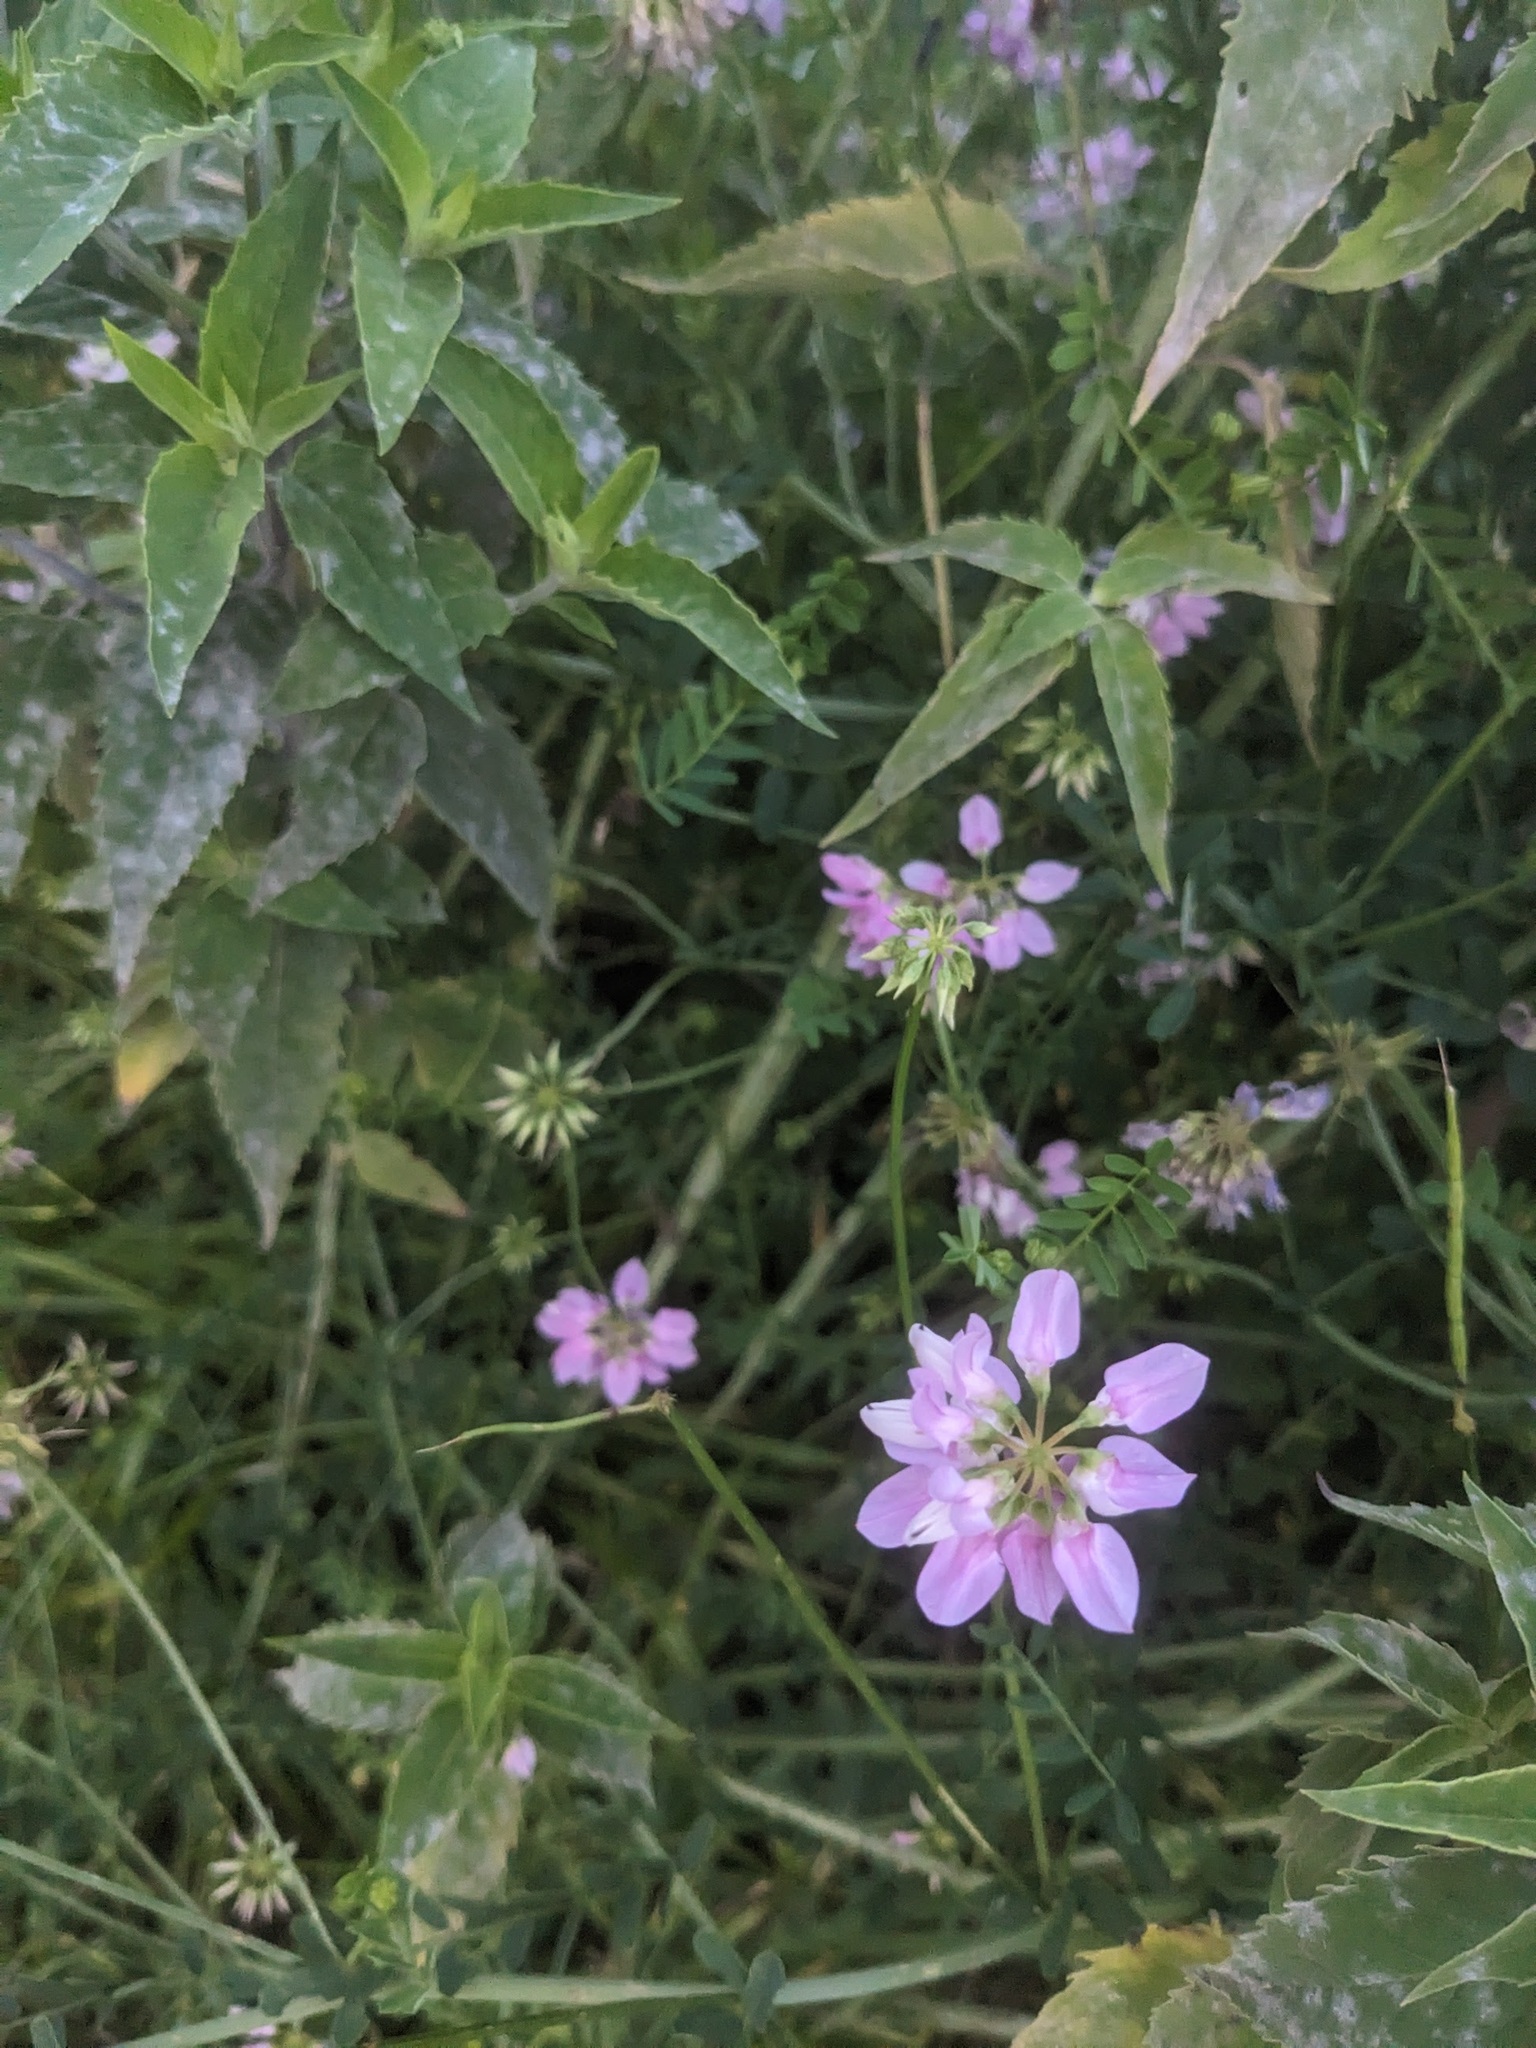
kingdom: Plantae
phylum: Tracheophyta
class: Magnoliopsida
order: Fabales
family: Fabaceae
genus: Coronilla
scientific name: Coronilla varia
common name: Crownvetch
